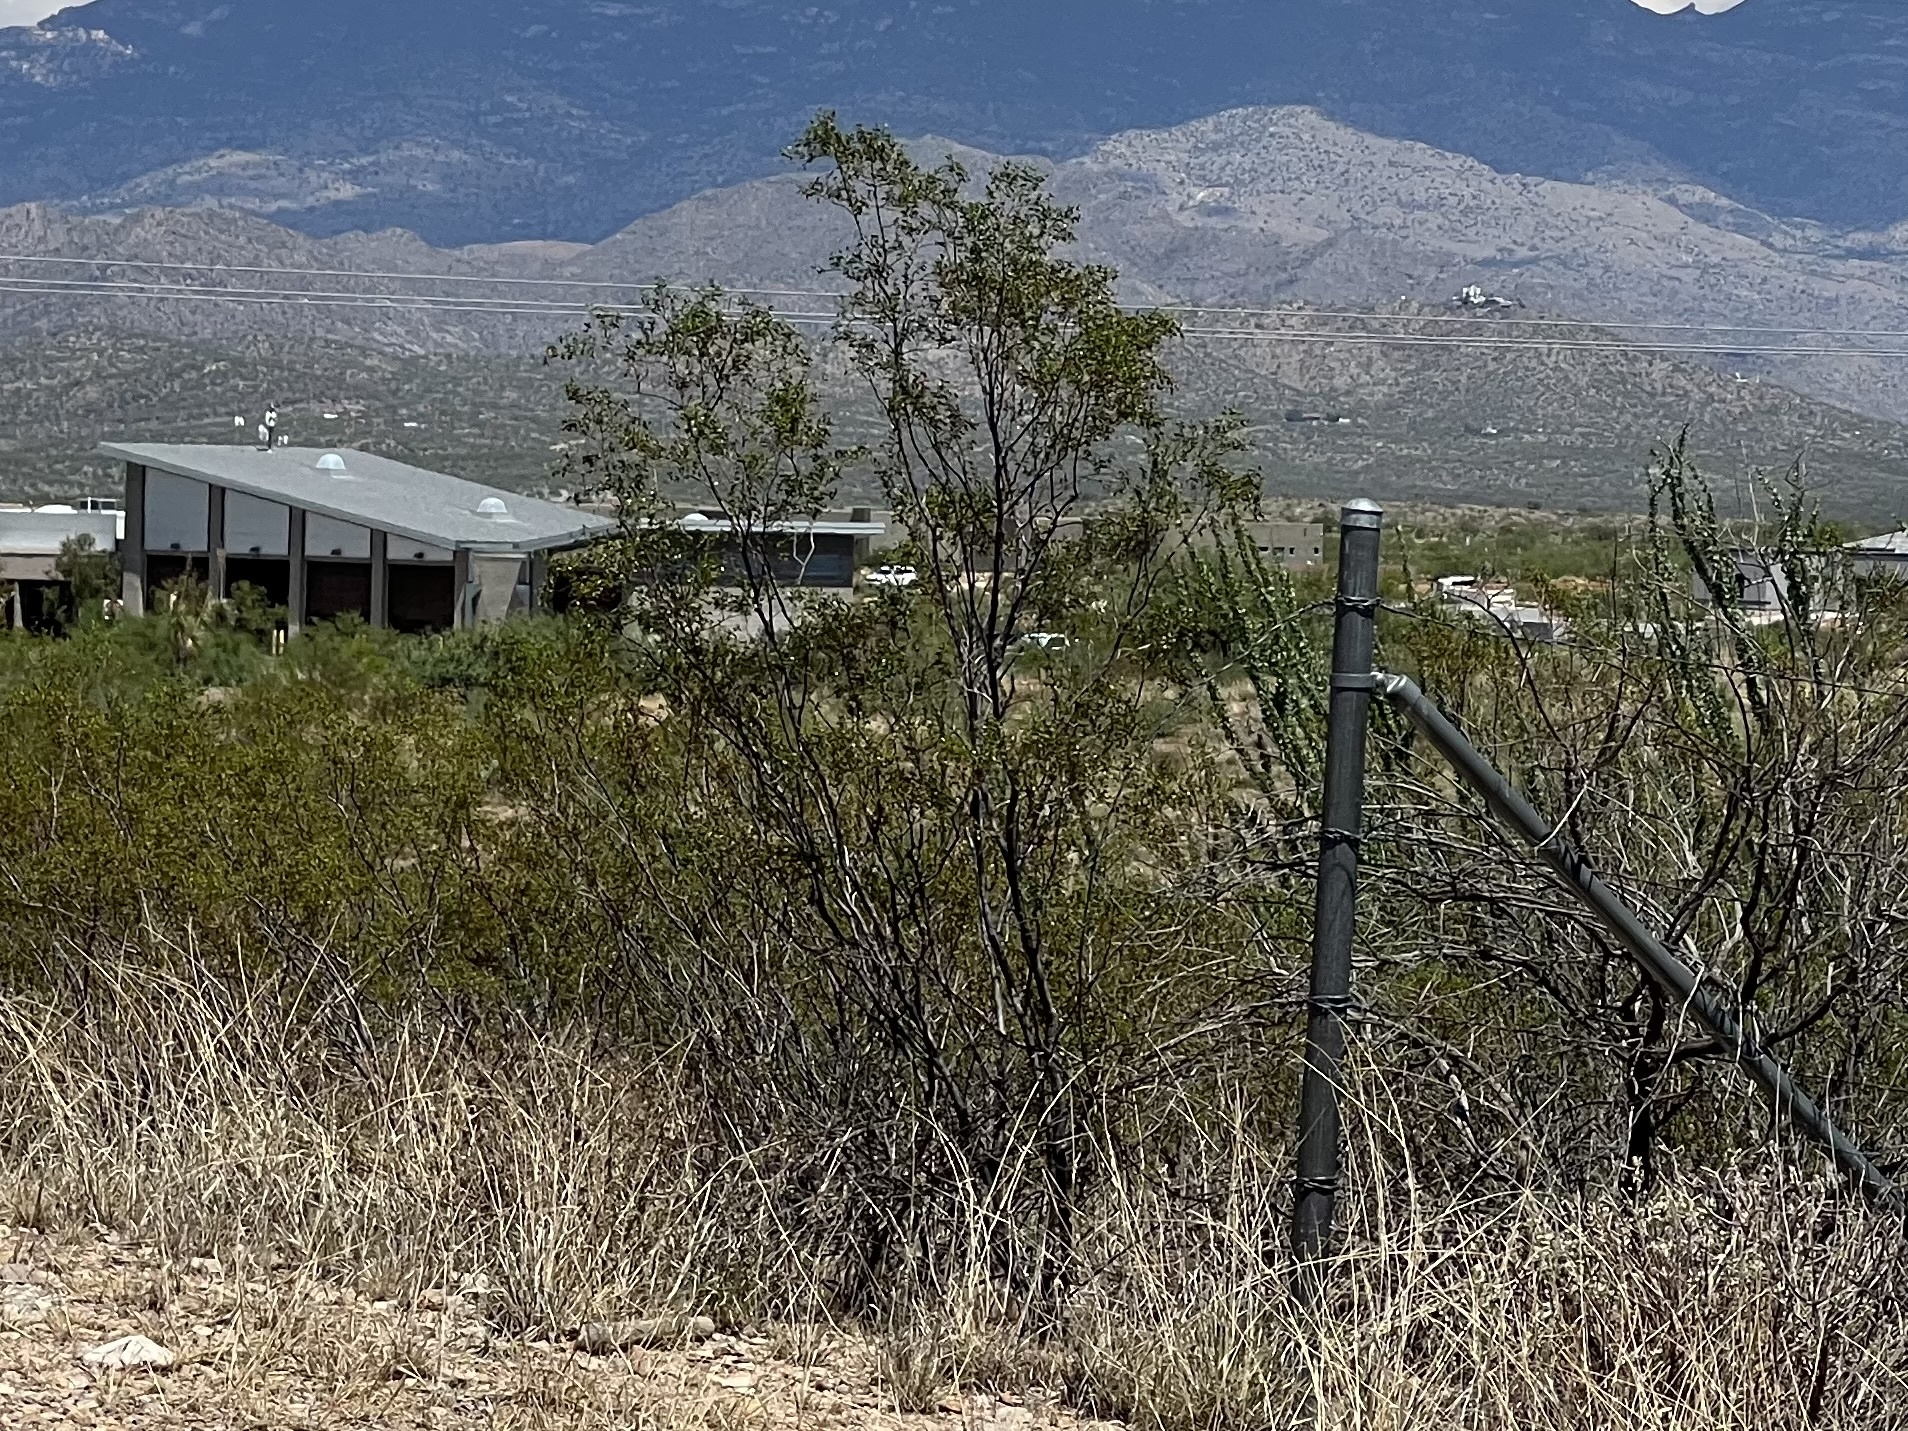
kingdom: Plantae
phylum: Tracheophyta
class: Magnoliopsida
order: Zygophyllales
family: Zygophyllaceae
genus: Larrea
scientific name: Larrea tridentata
